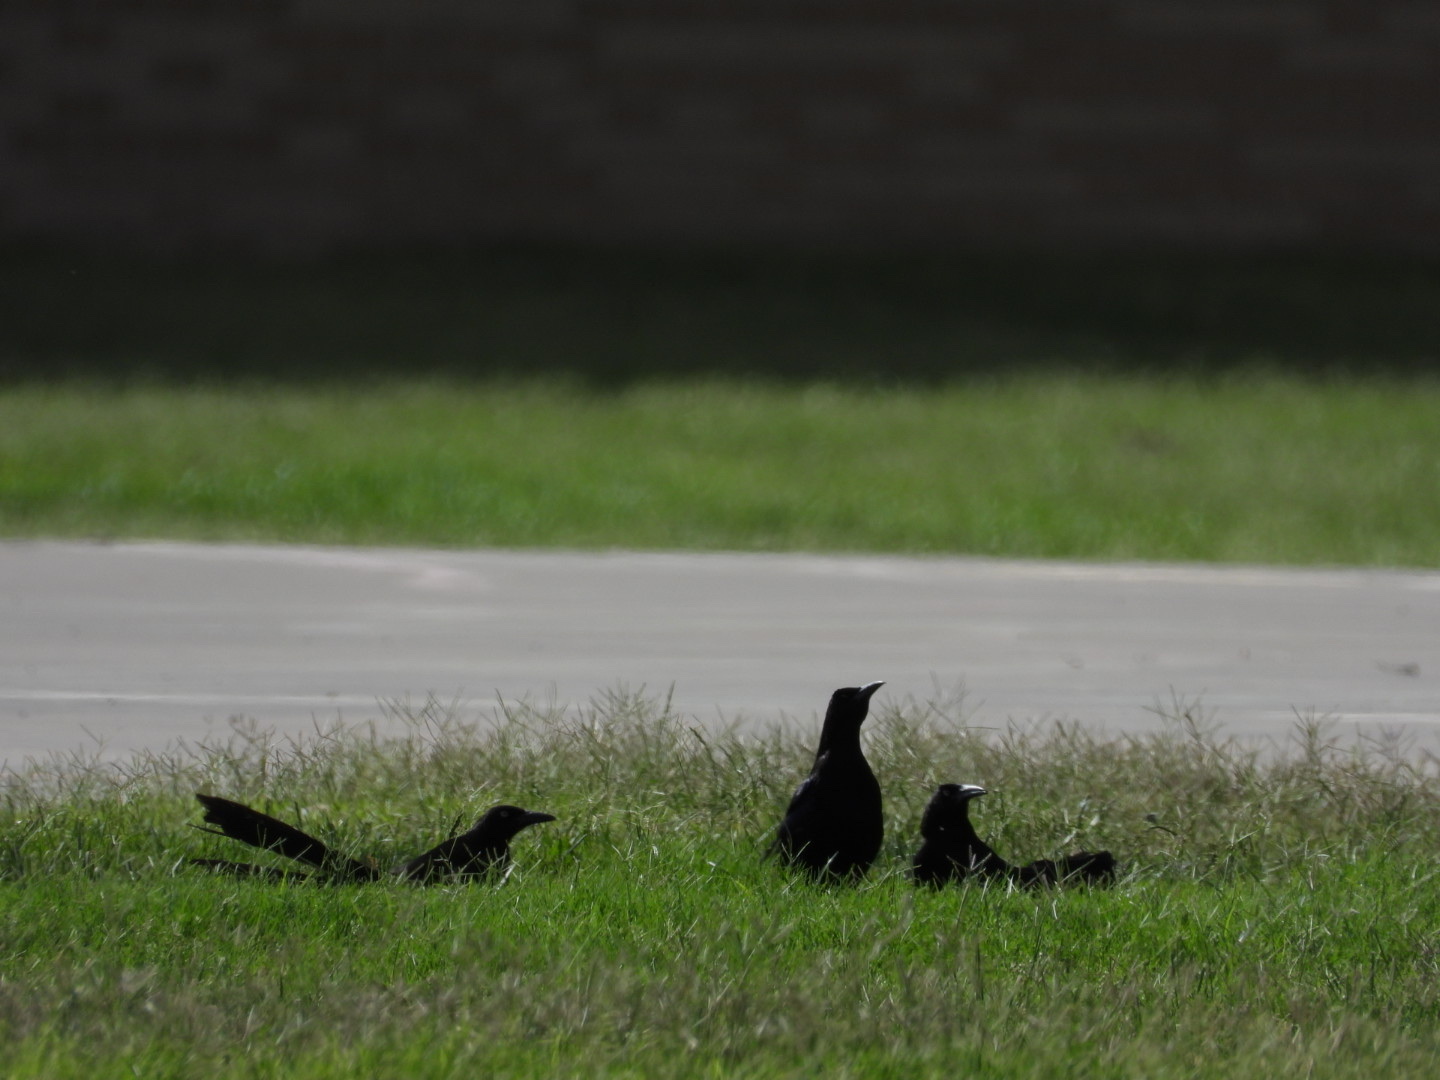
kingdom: Animalia
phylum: Chordata
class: Aves
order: Passeriformes
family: Icteridae
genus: Quiscalus
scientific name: Quiscalus mexicanus
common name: Great-tailed grackle
